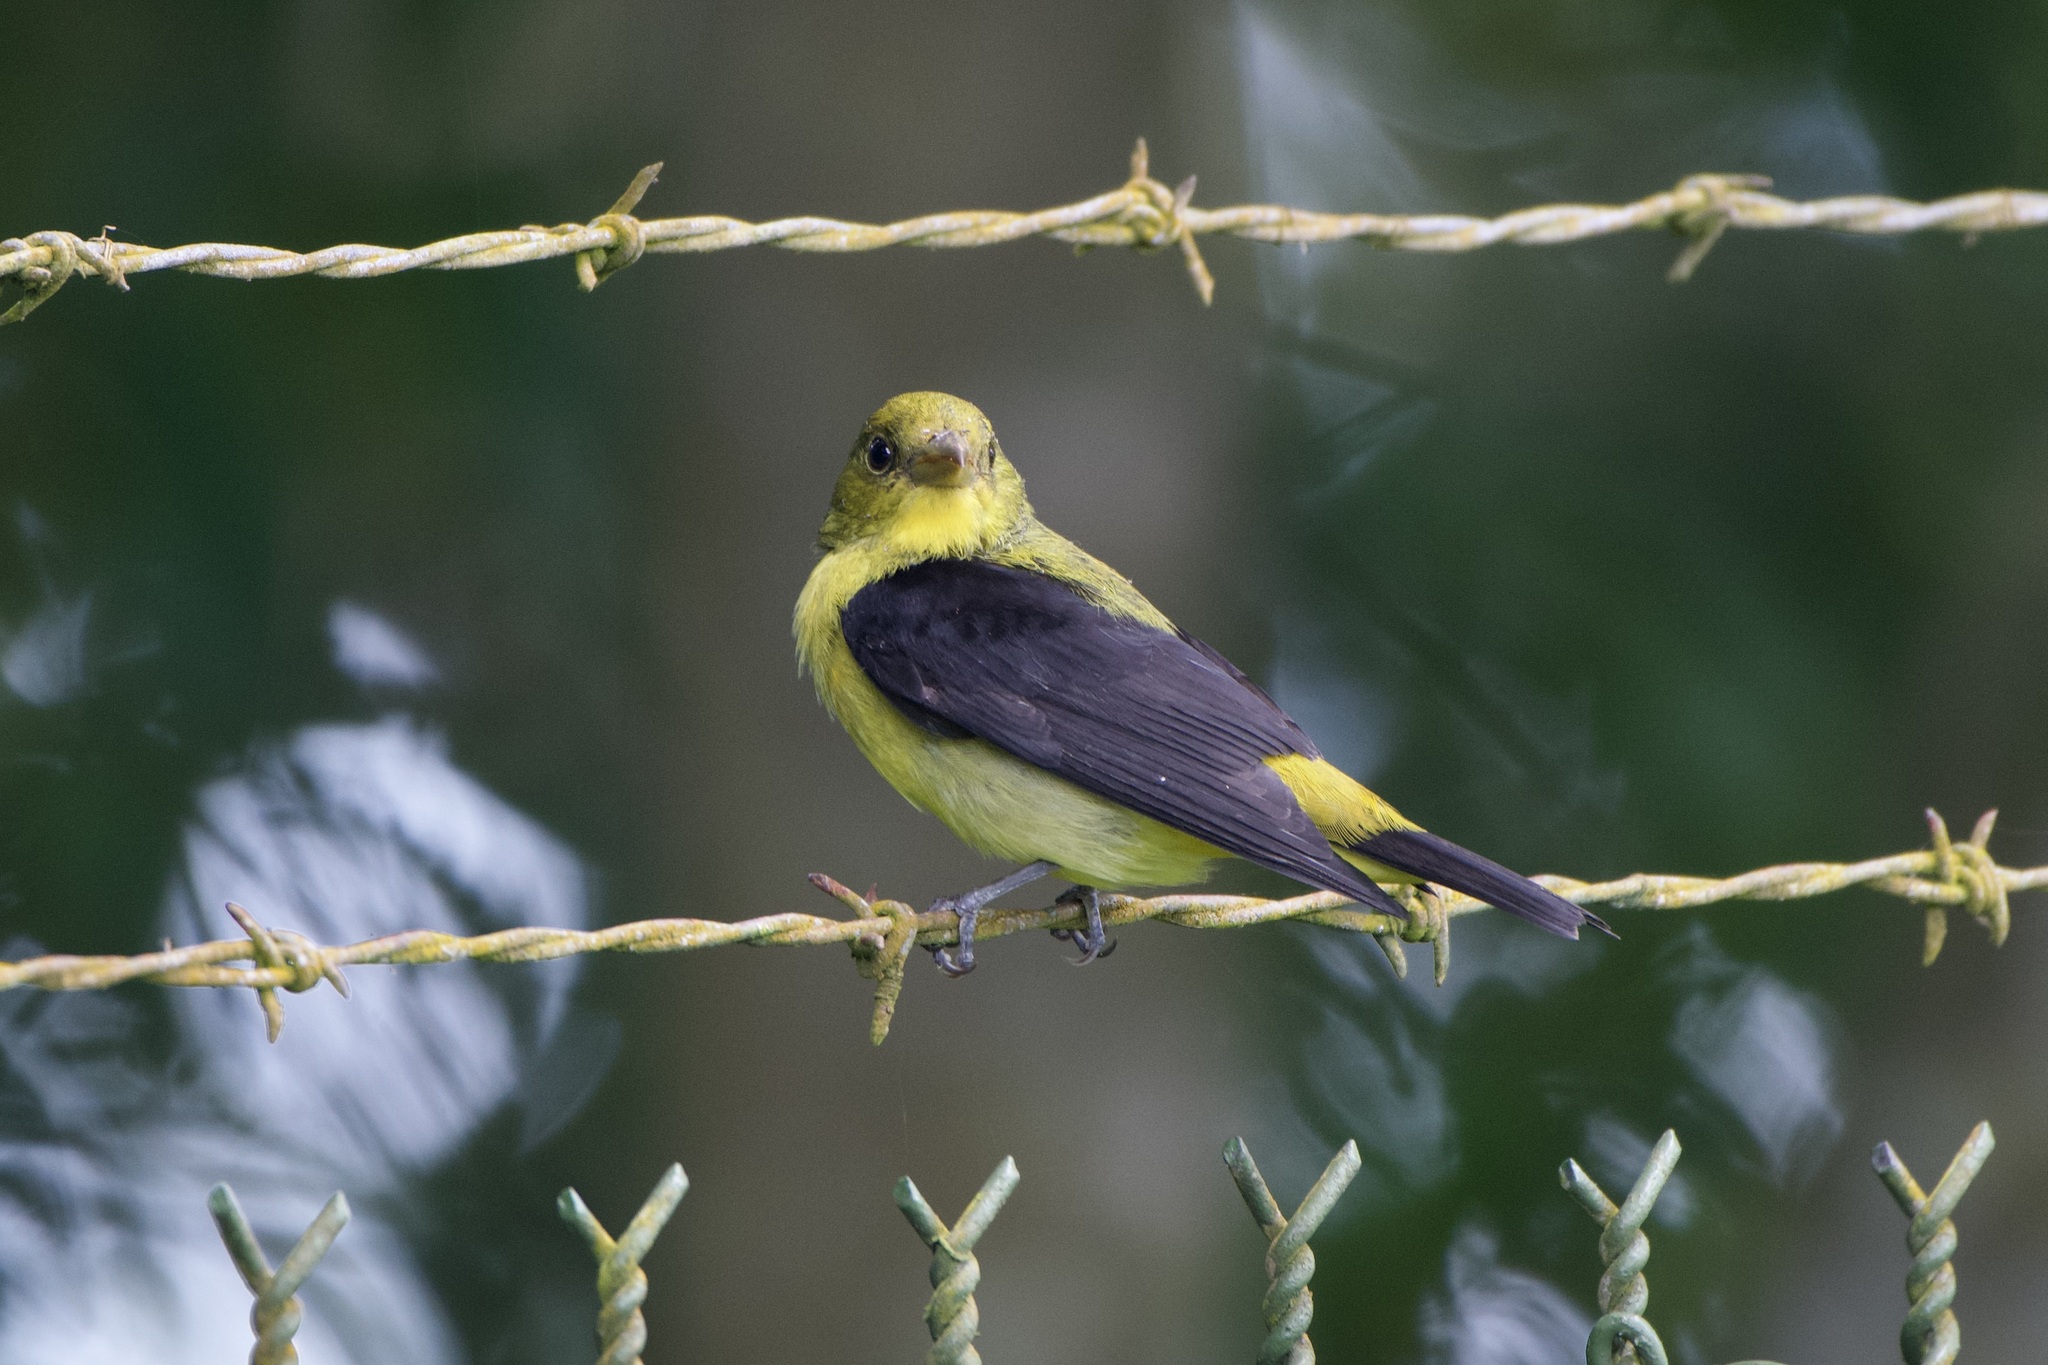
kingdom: Animalia
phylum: Chordata
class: Aves
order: Passeriformes
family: Cardinalidae
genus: Piranga
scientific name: Piranga olivacea
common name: Scarlet tanager
